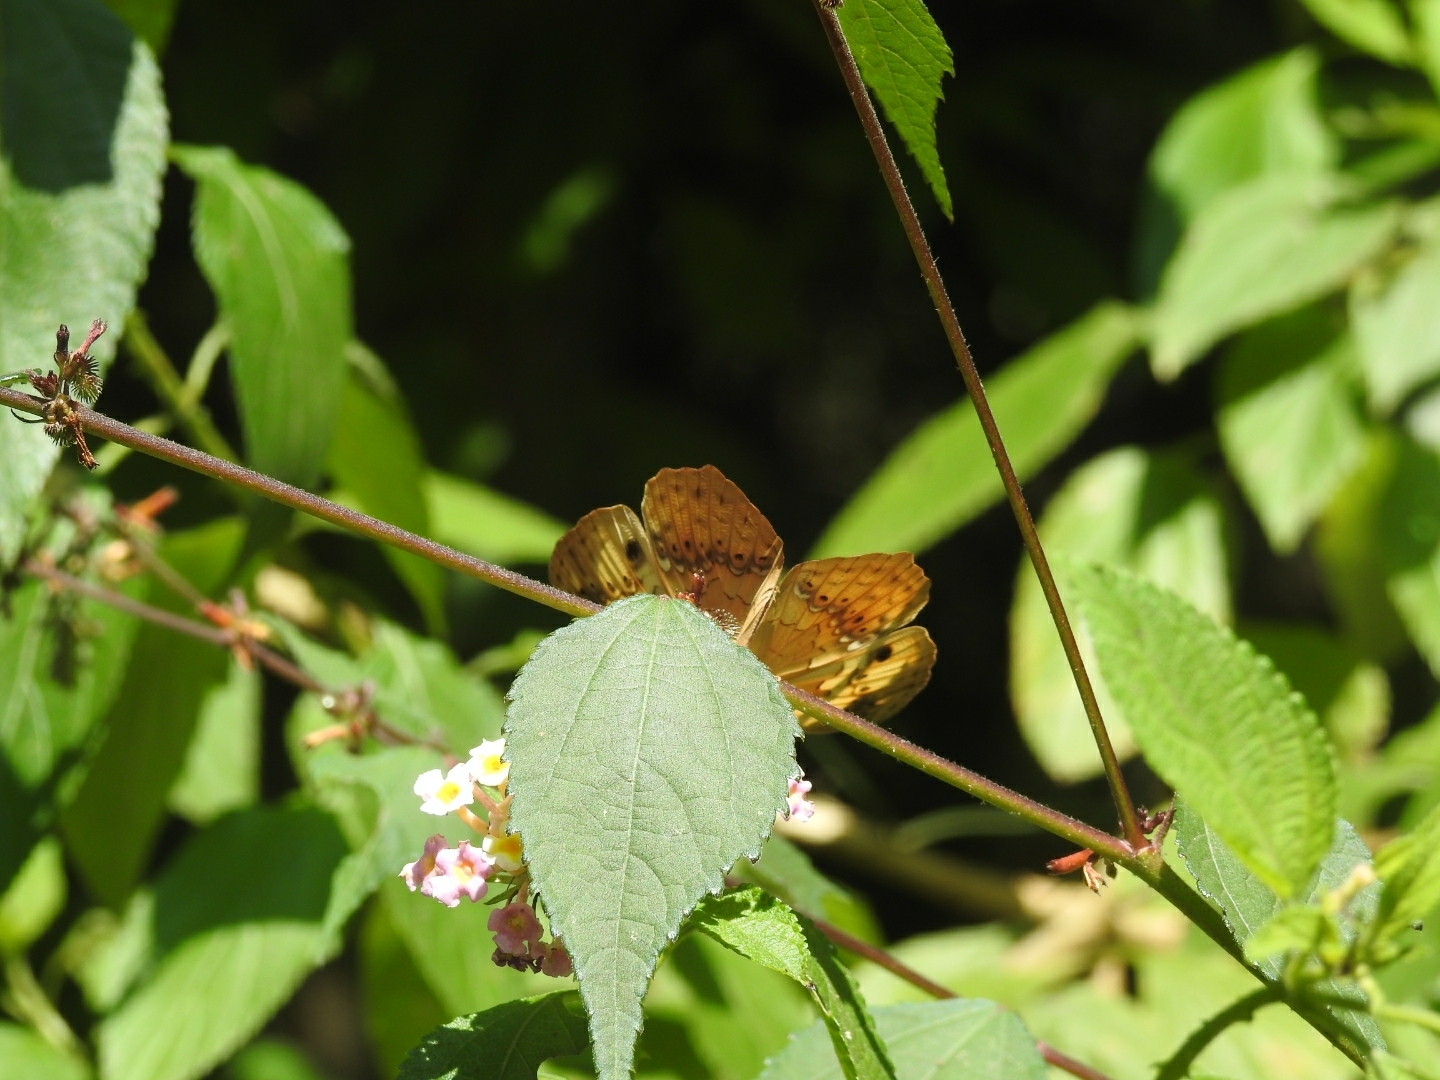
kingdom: Animalia
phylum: Arthropoda
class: Insecta
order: Lepidoptera
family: Nymphalidae
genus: Cupha
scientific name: Cupha erymanthis
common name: Rustic
